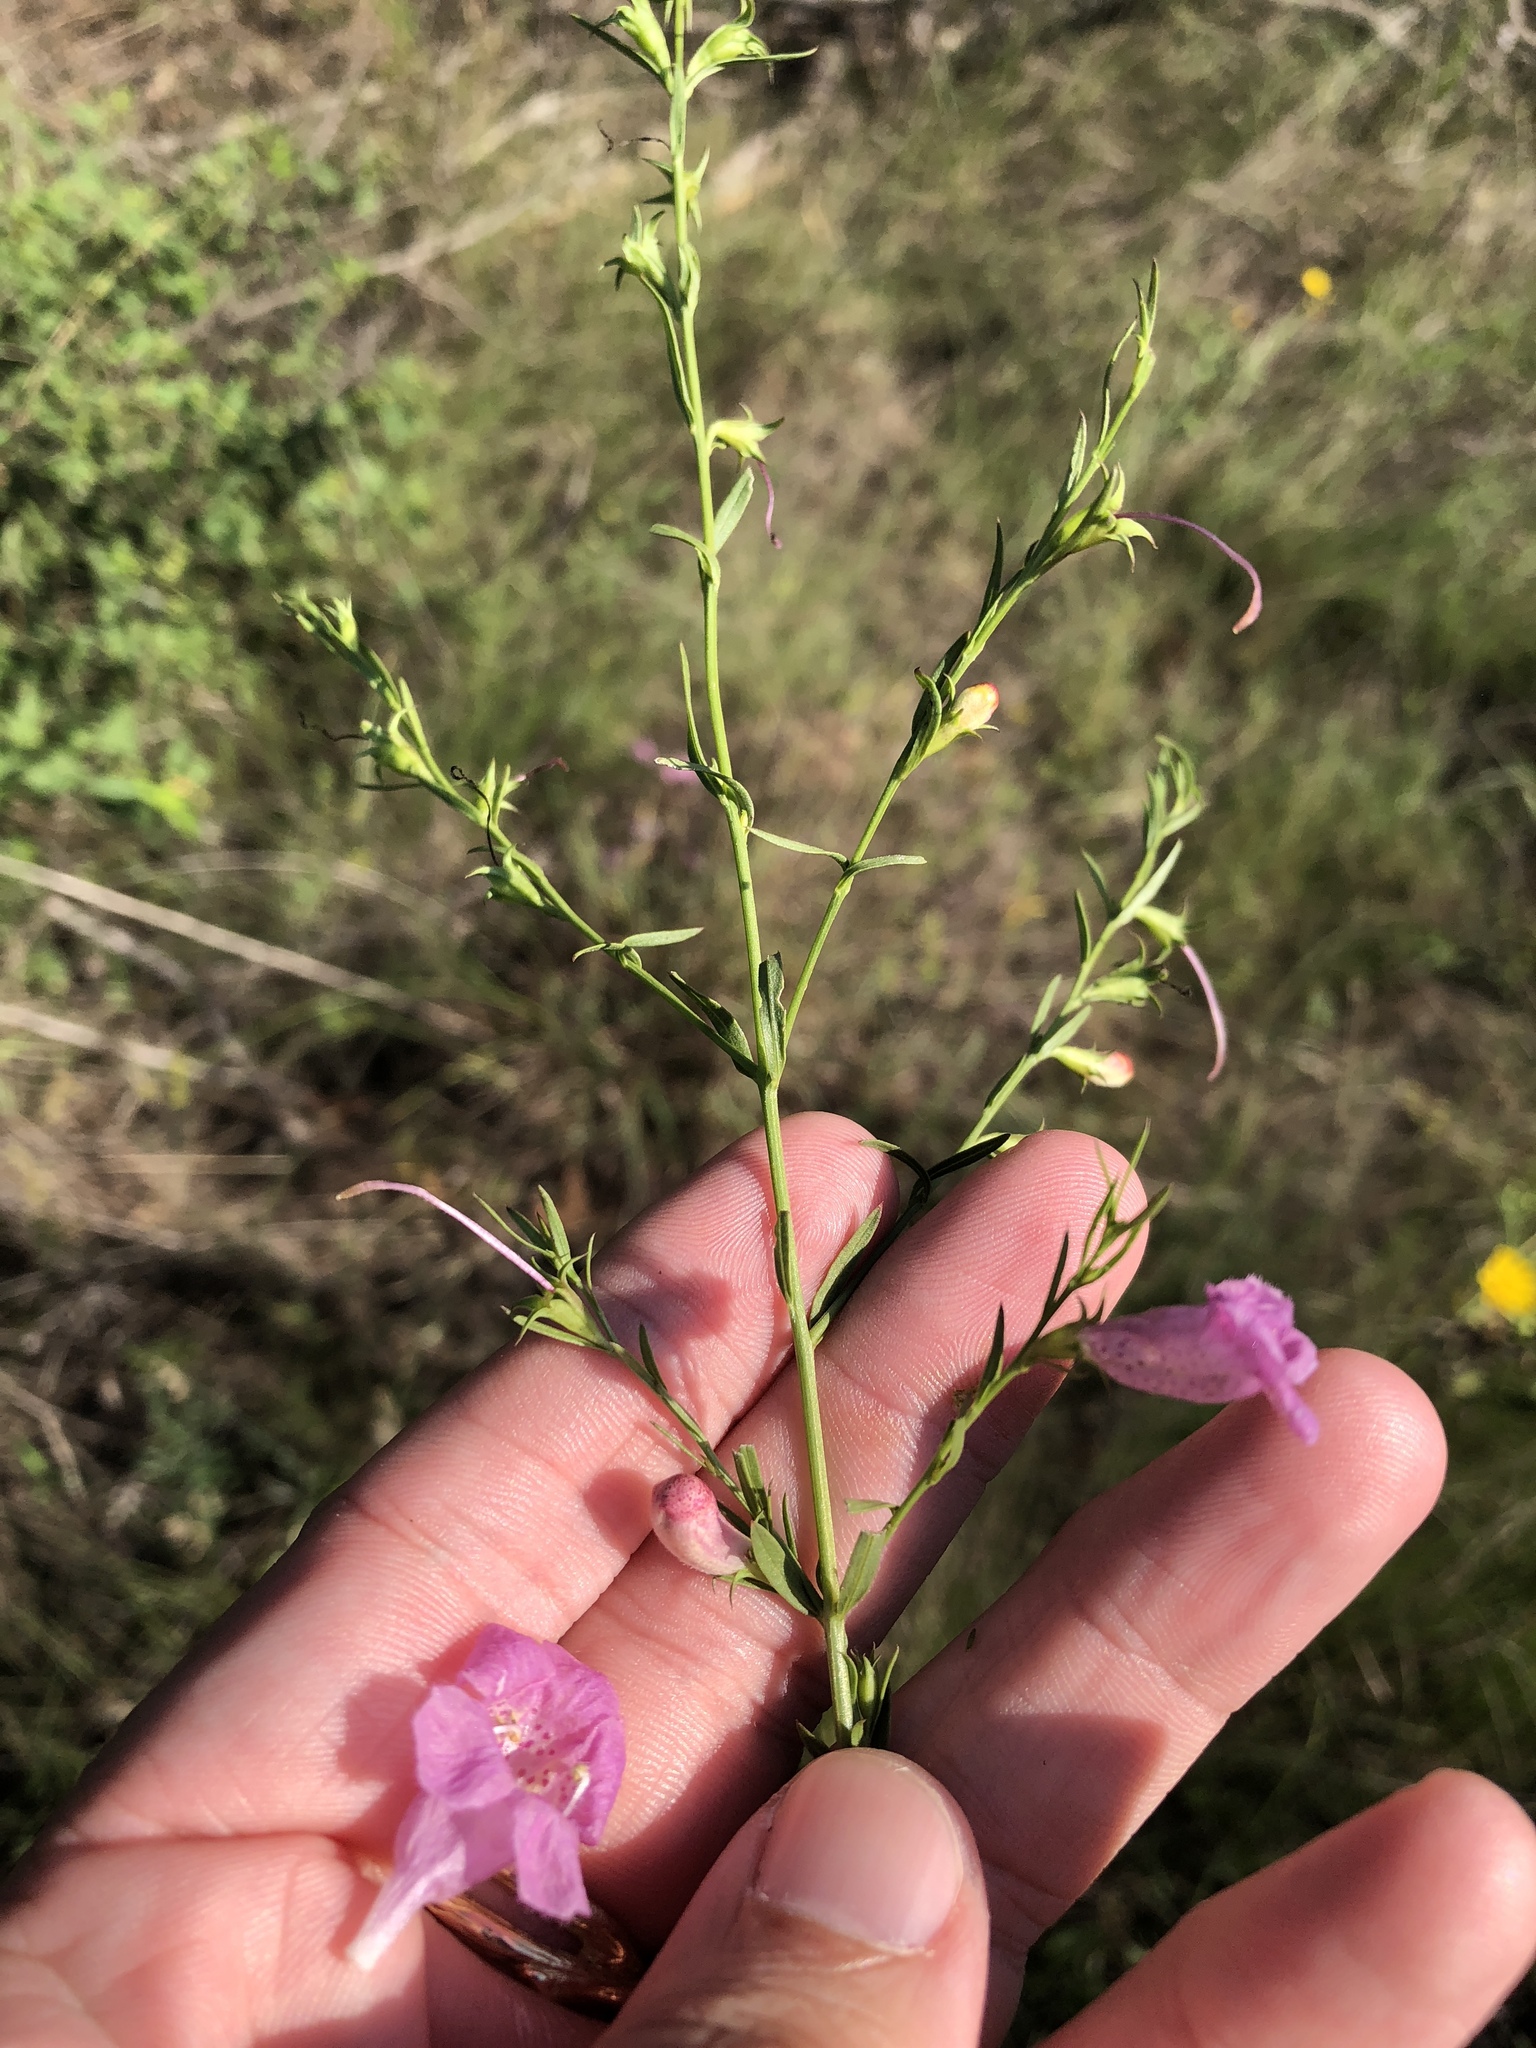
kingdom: Plantae
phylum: Tracheophyta
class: Magnoliopsida
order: Lamiales
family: Orobanchaceae
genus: Agalinis
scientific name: Agalinis heterophylla
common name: Prairie agalinis
